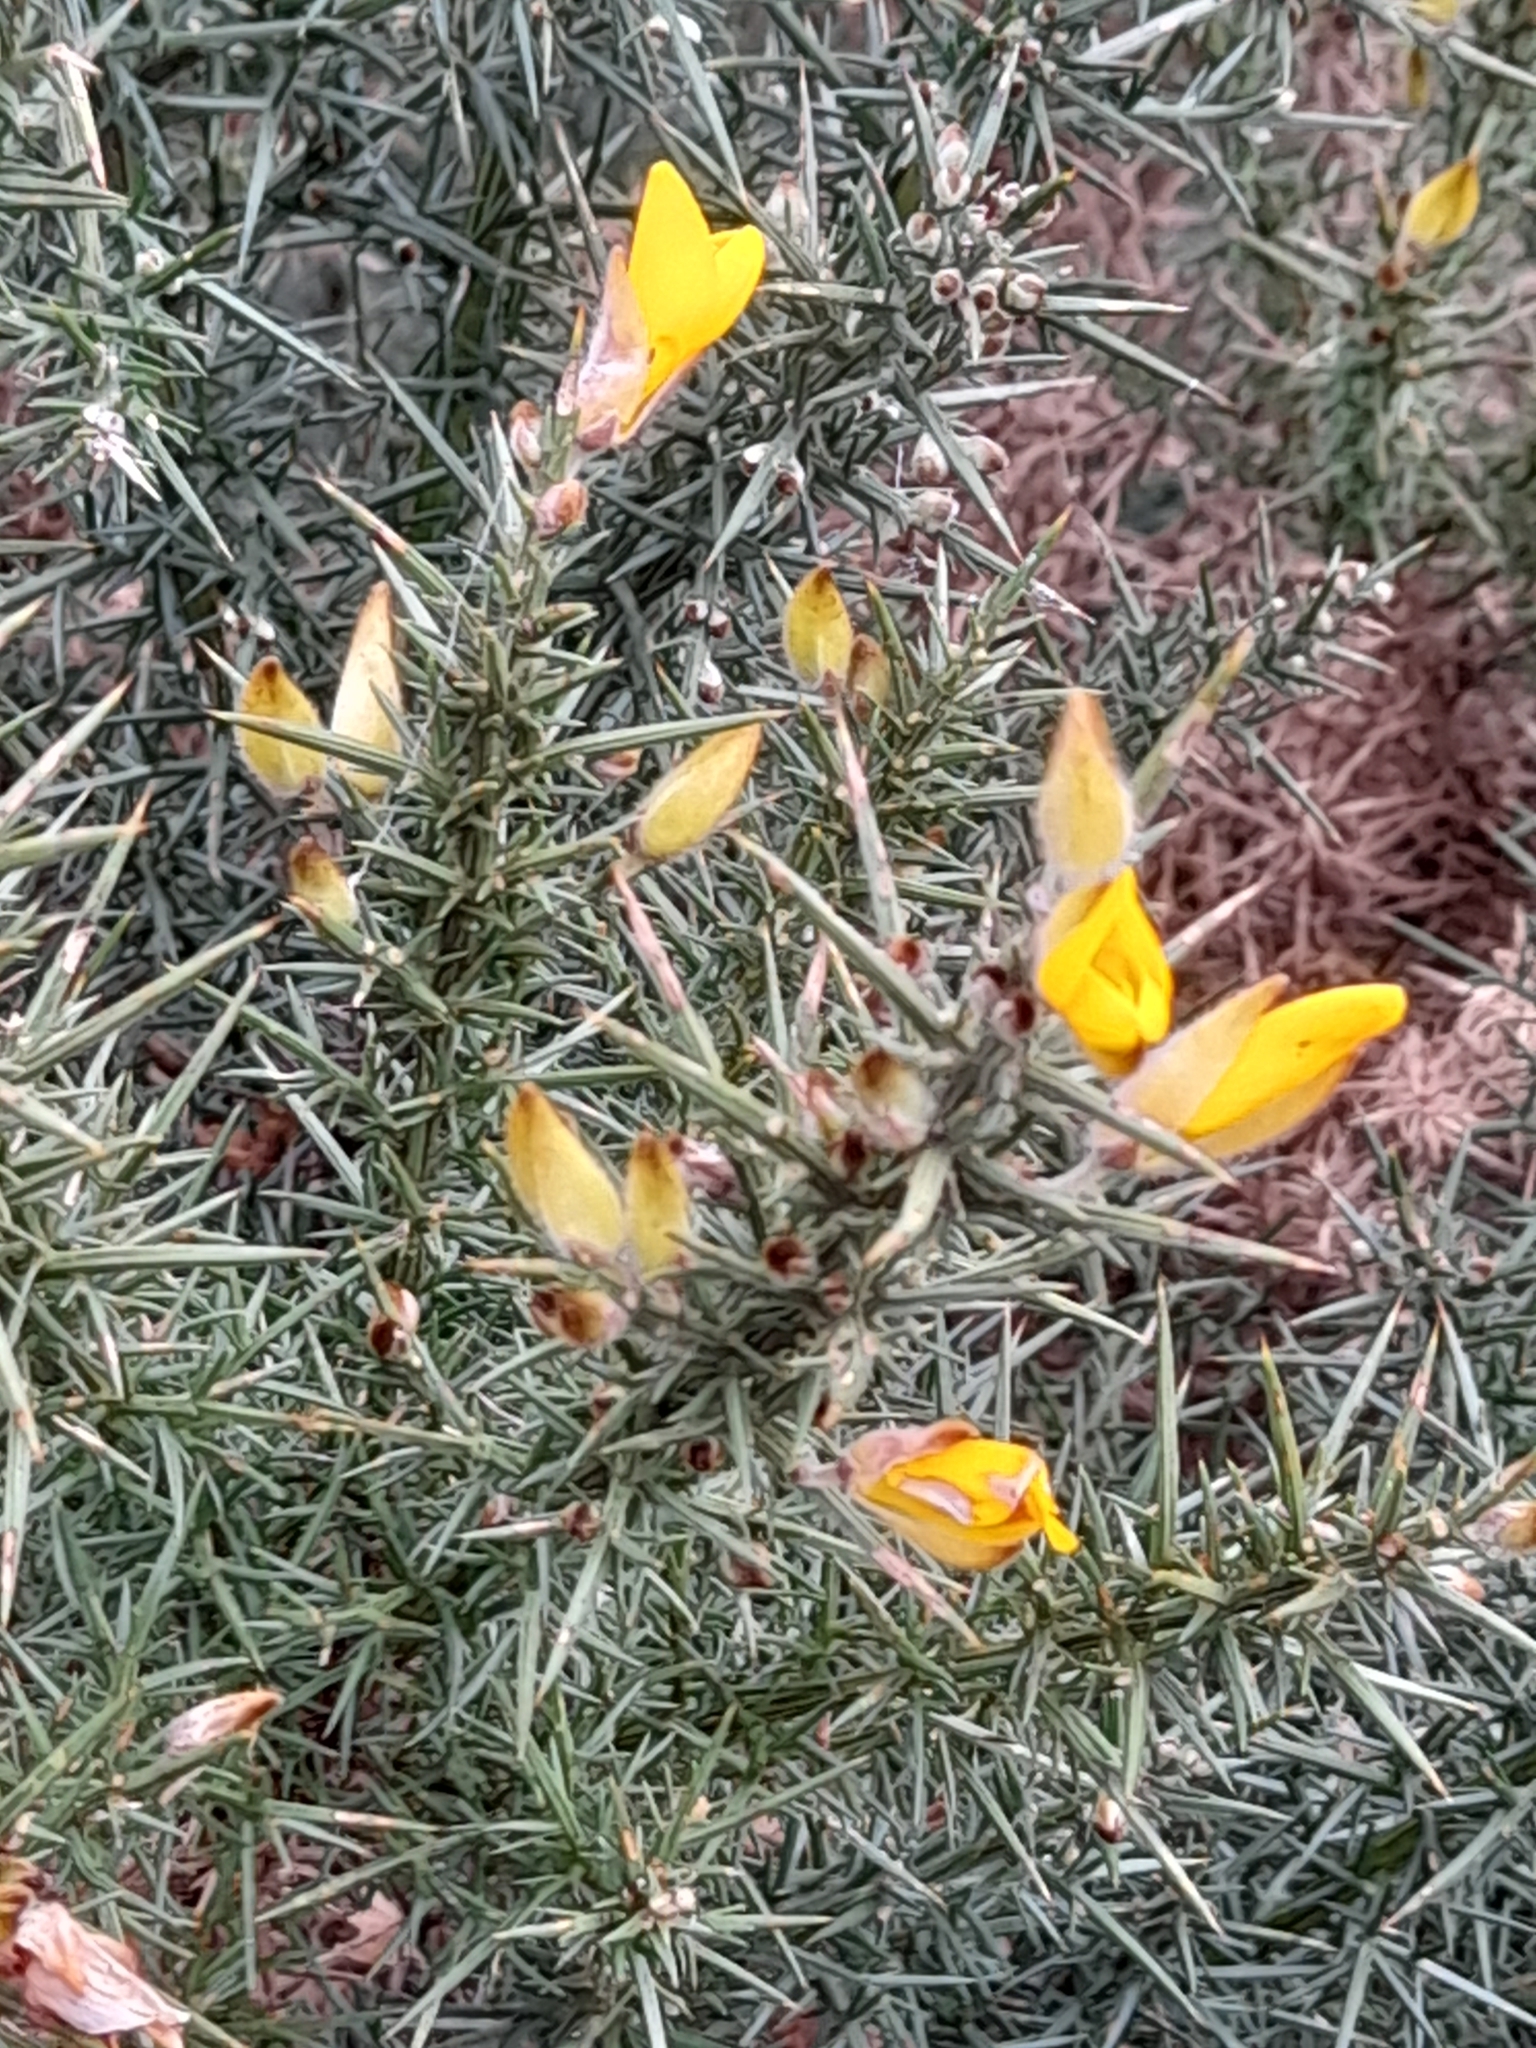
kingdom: Plantae
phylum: Tracheophyta
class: Magnoliopsida
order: Fabales
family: Fabaceae
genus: Ulex
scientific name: Ulex europaeus
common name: Common gorse
